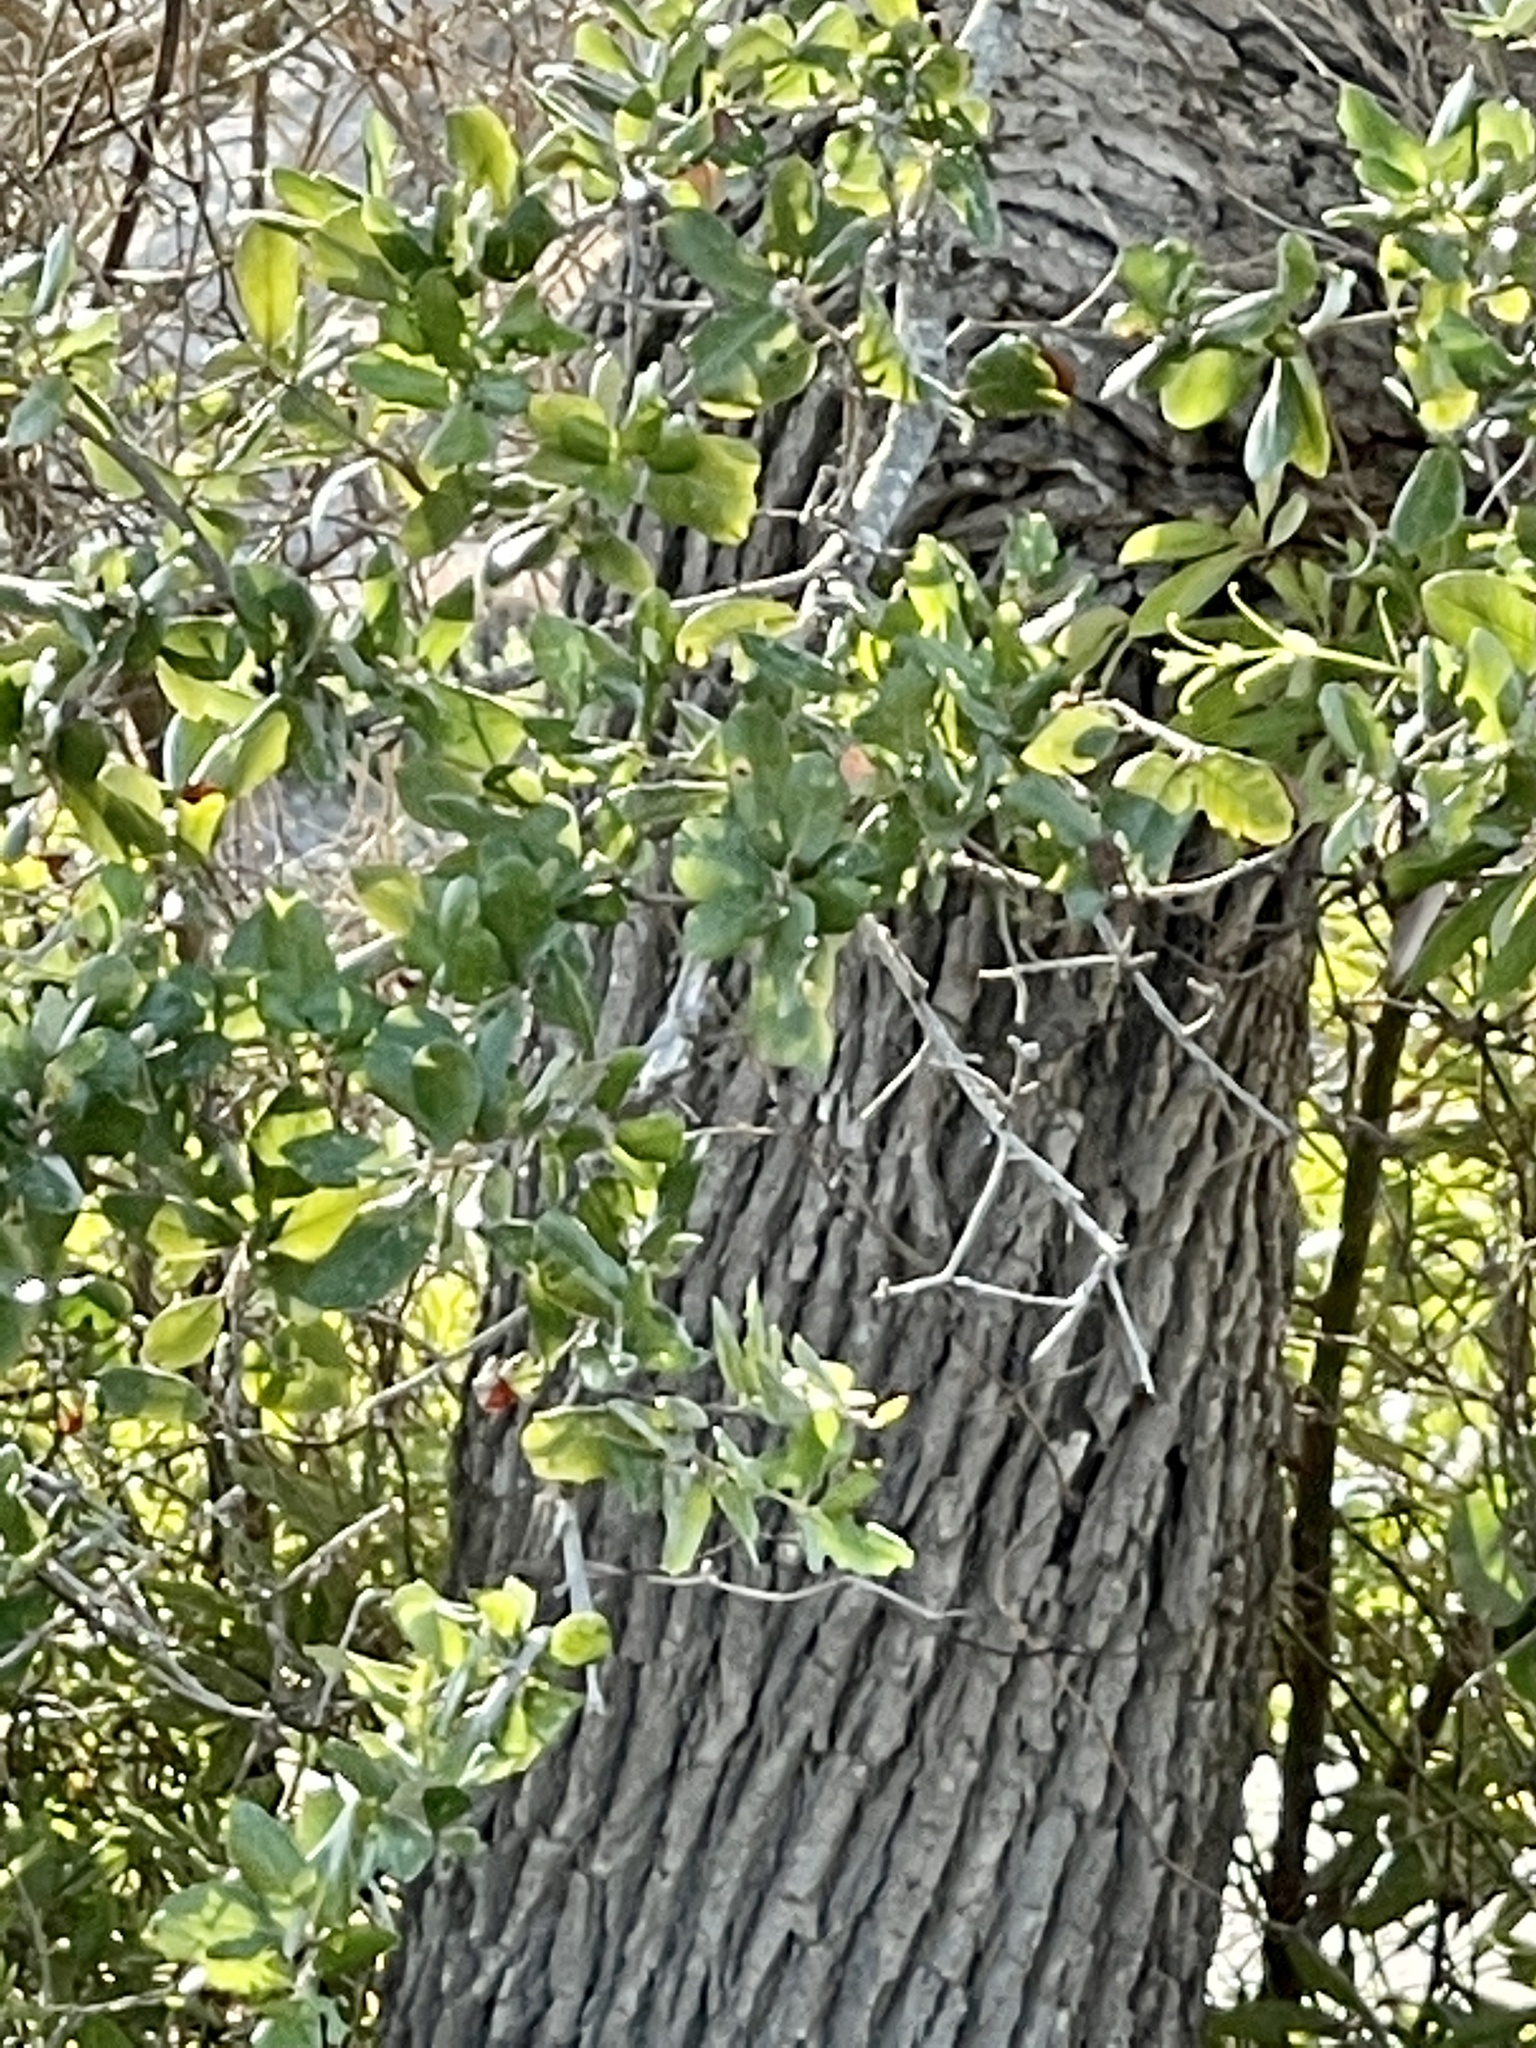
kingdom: Plantae
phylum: Tracheophyta
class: Magnoliopsida
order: Fagales
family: Fagaceae
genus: Quercus
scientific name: Quercus fusiformis
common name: Texas live oak
